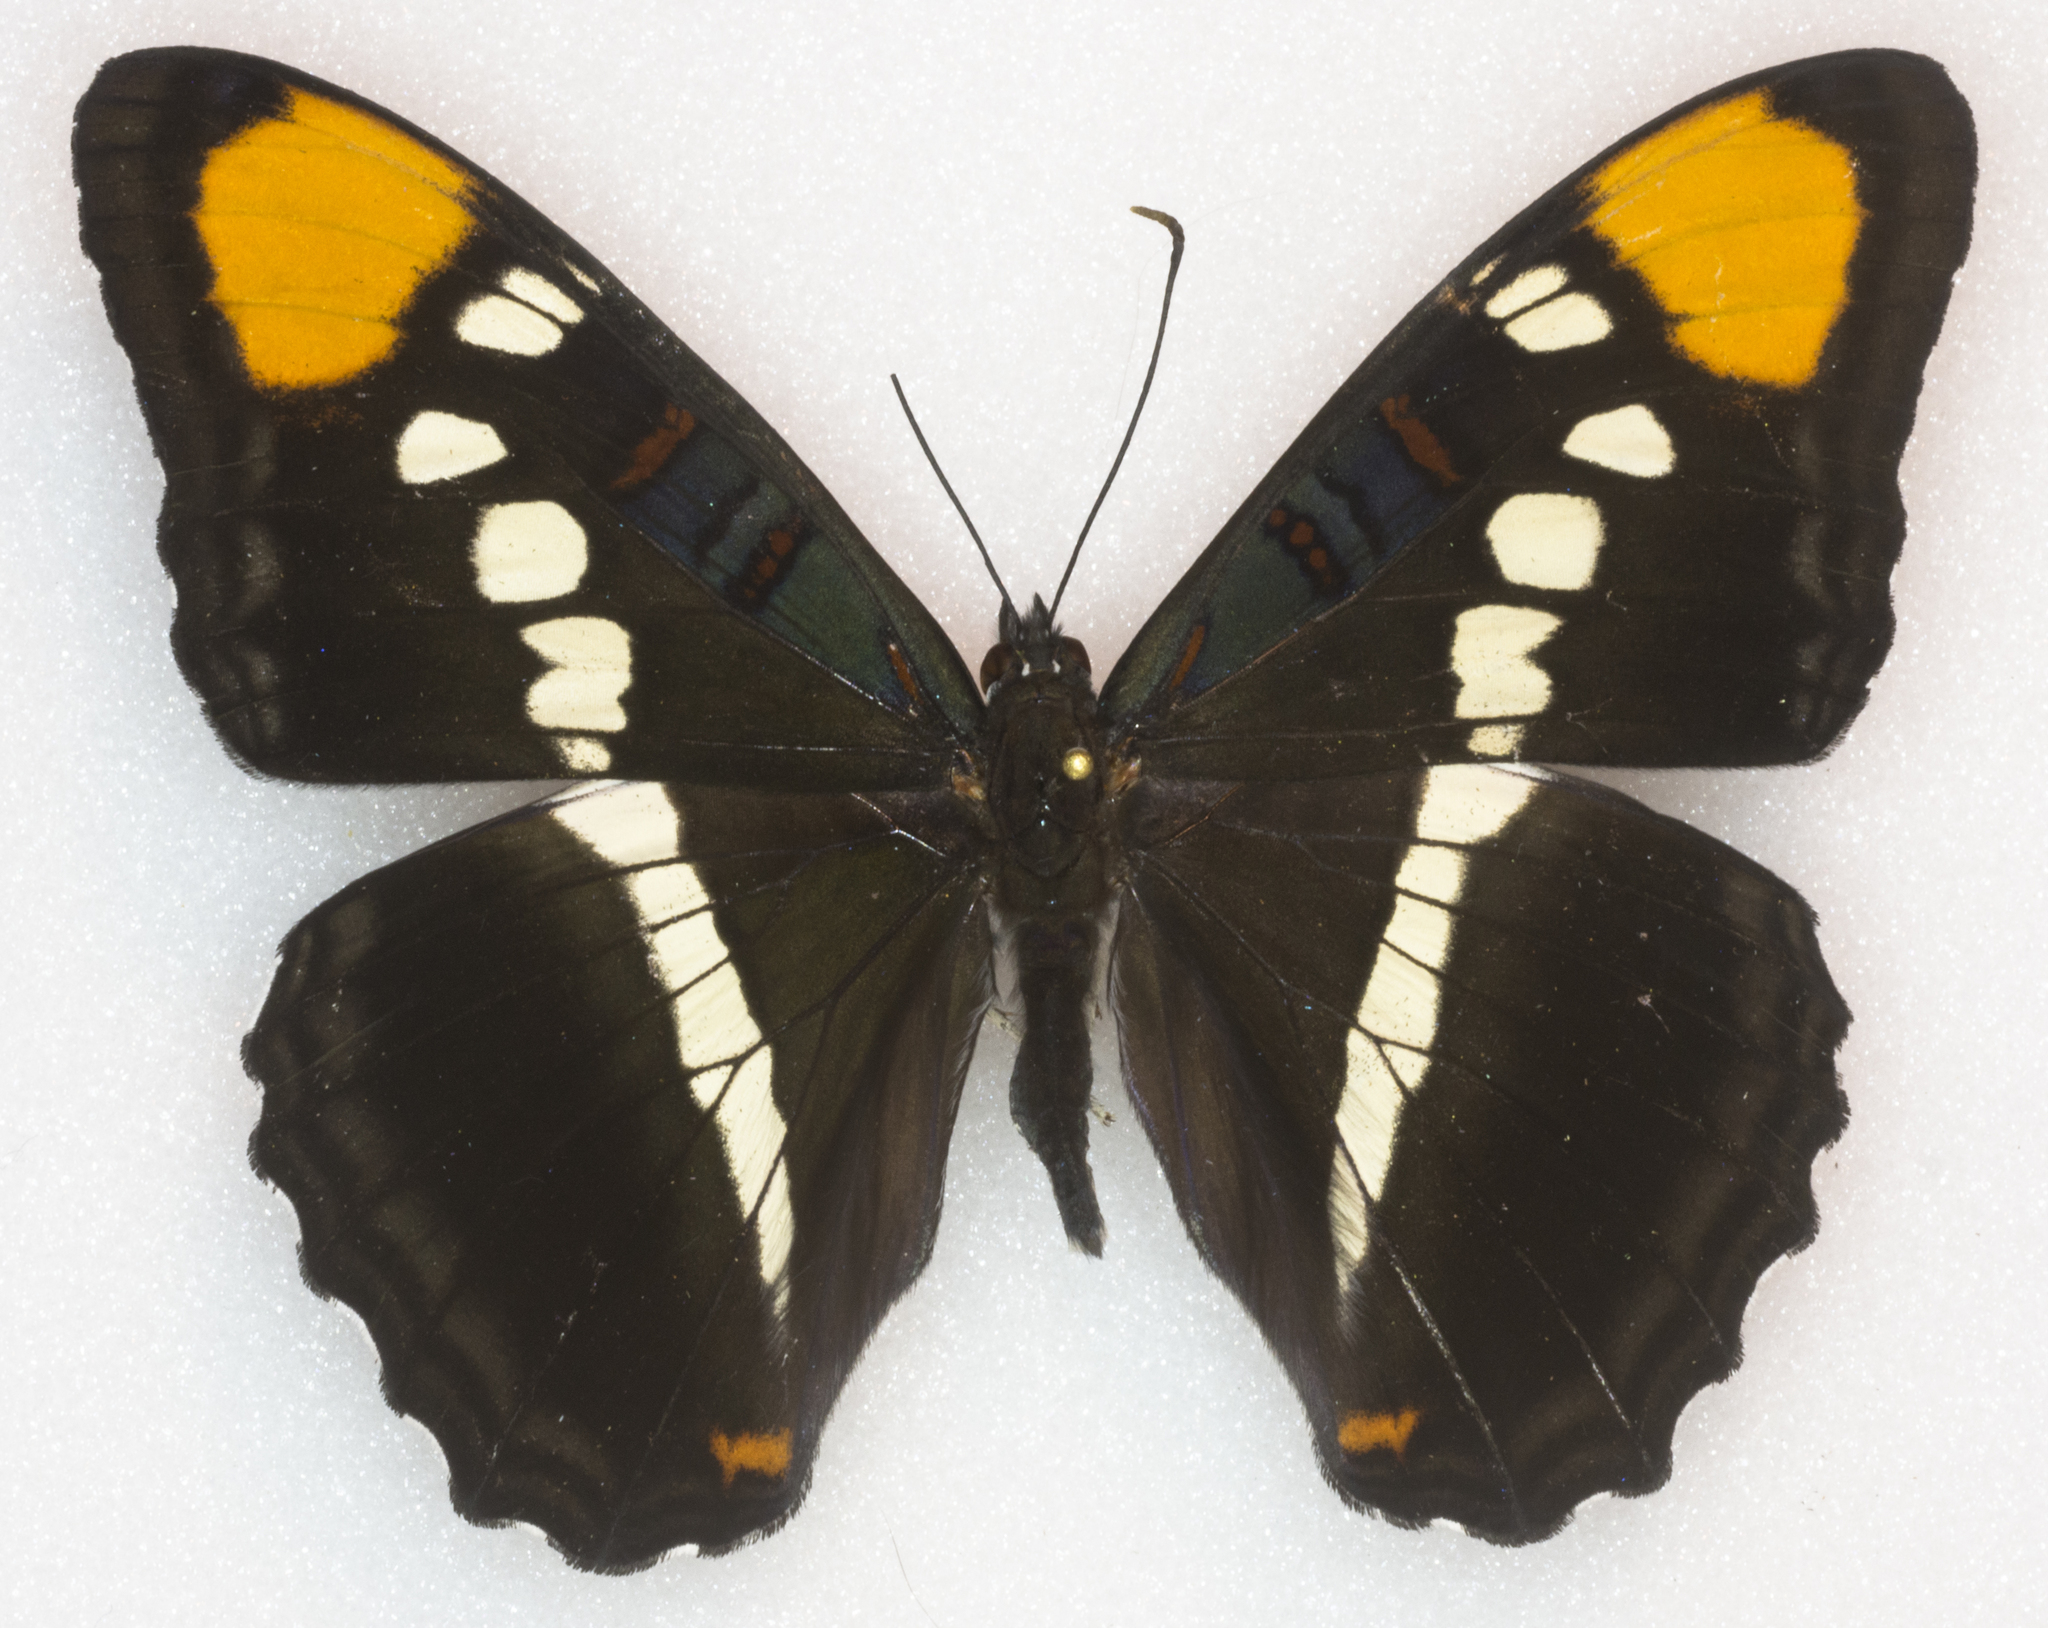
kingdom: Animalia
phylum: Arthropoda
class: Insecta
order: Lepidoptera
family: Nymphalidae
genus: Limenitis
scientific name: Limenitis bredowii
